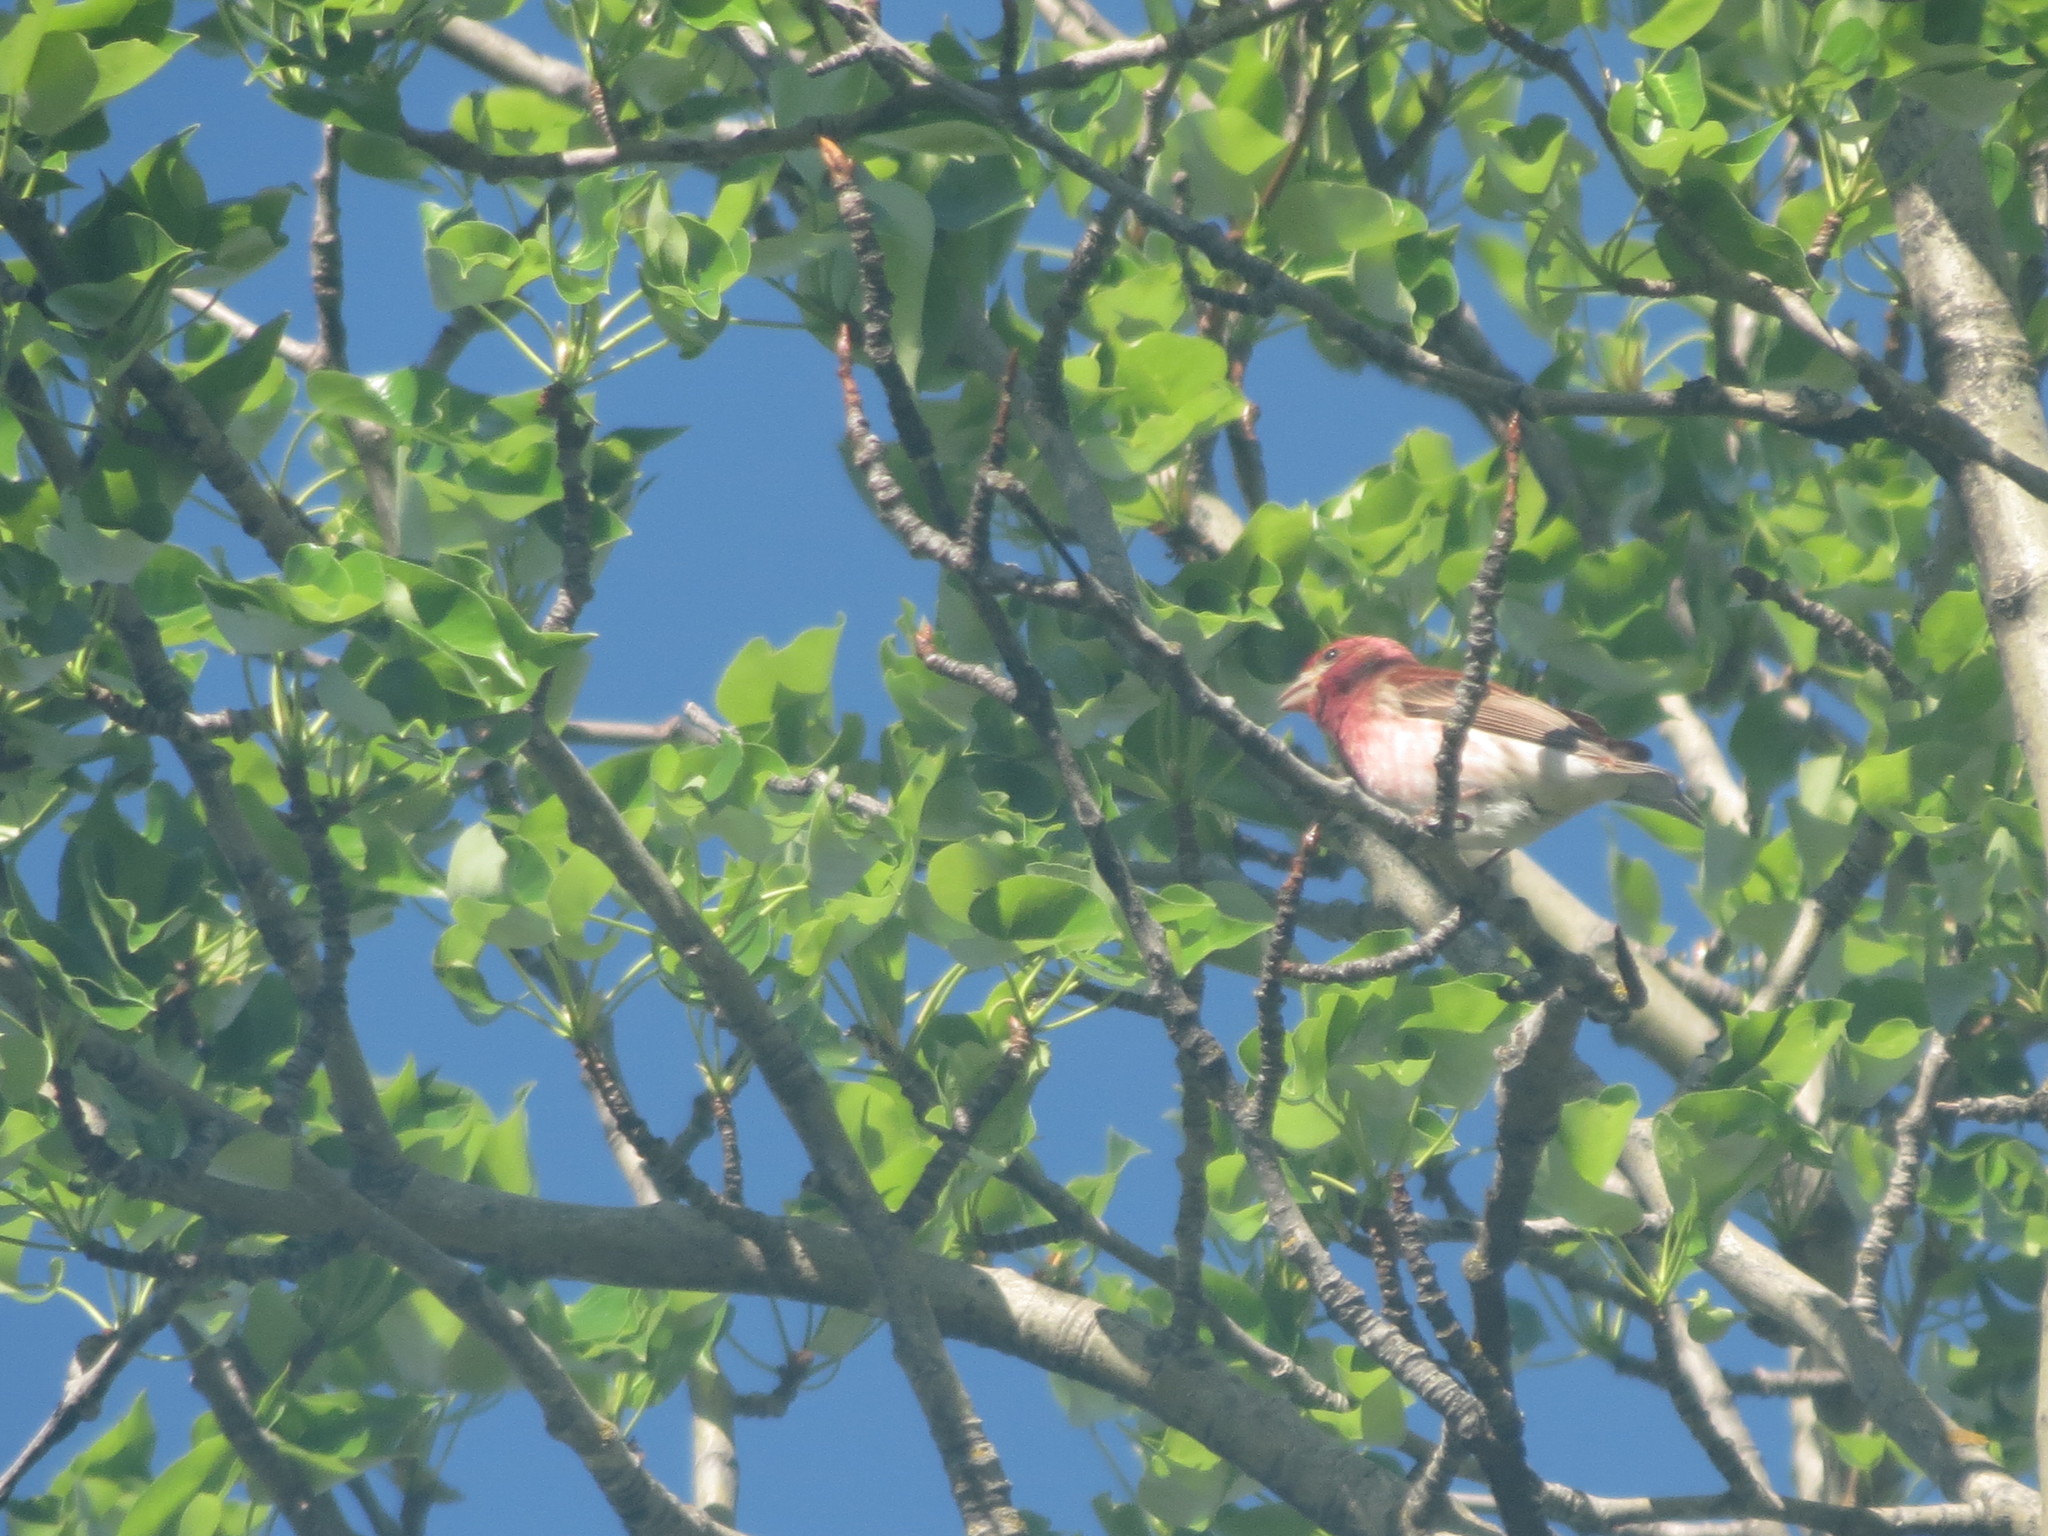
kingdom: Animalia
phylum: Chordata
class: Aves
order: Passeriformes
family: Fringillidae
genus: Haemorhous
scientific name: Haemorhous purpureus
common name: Purple finch
